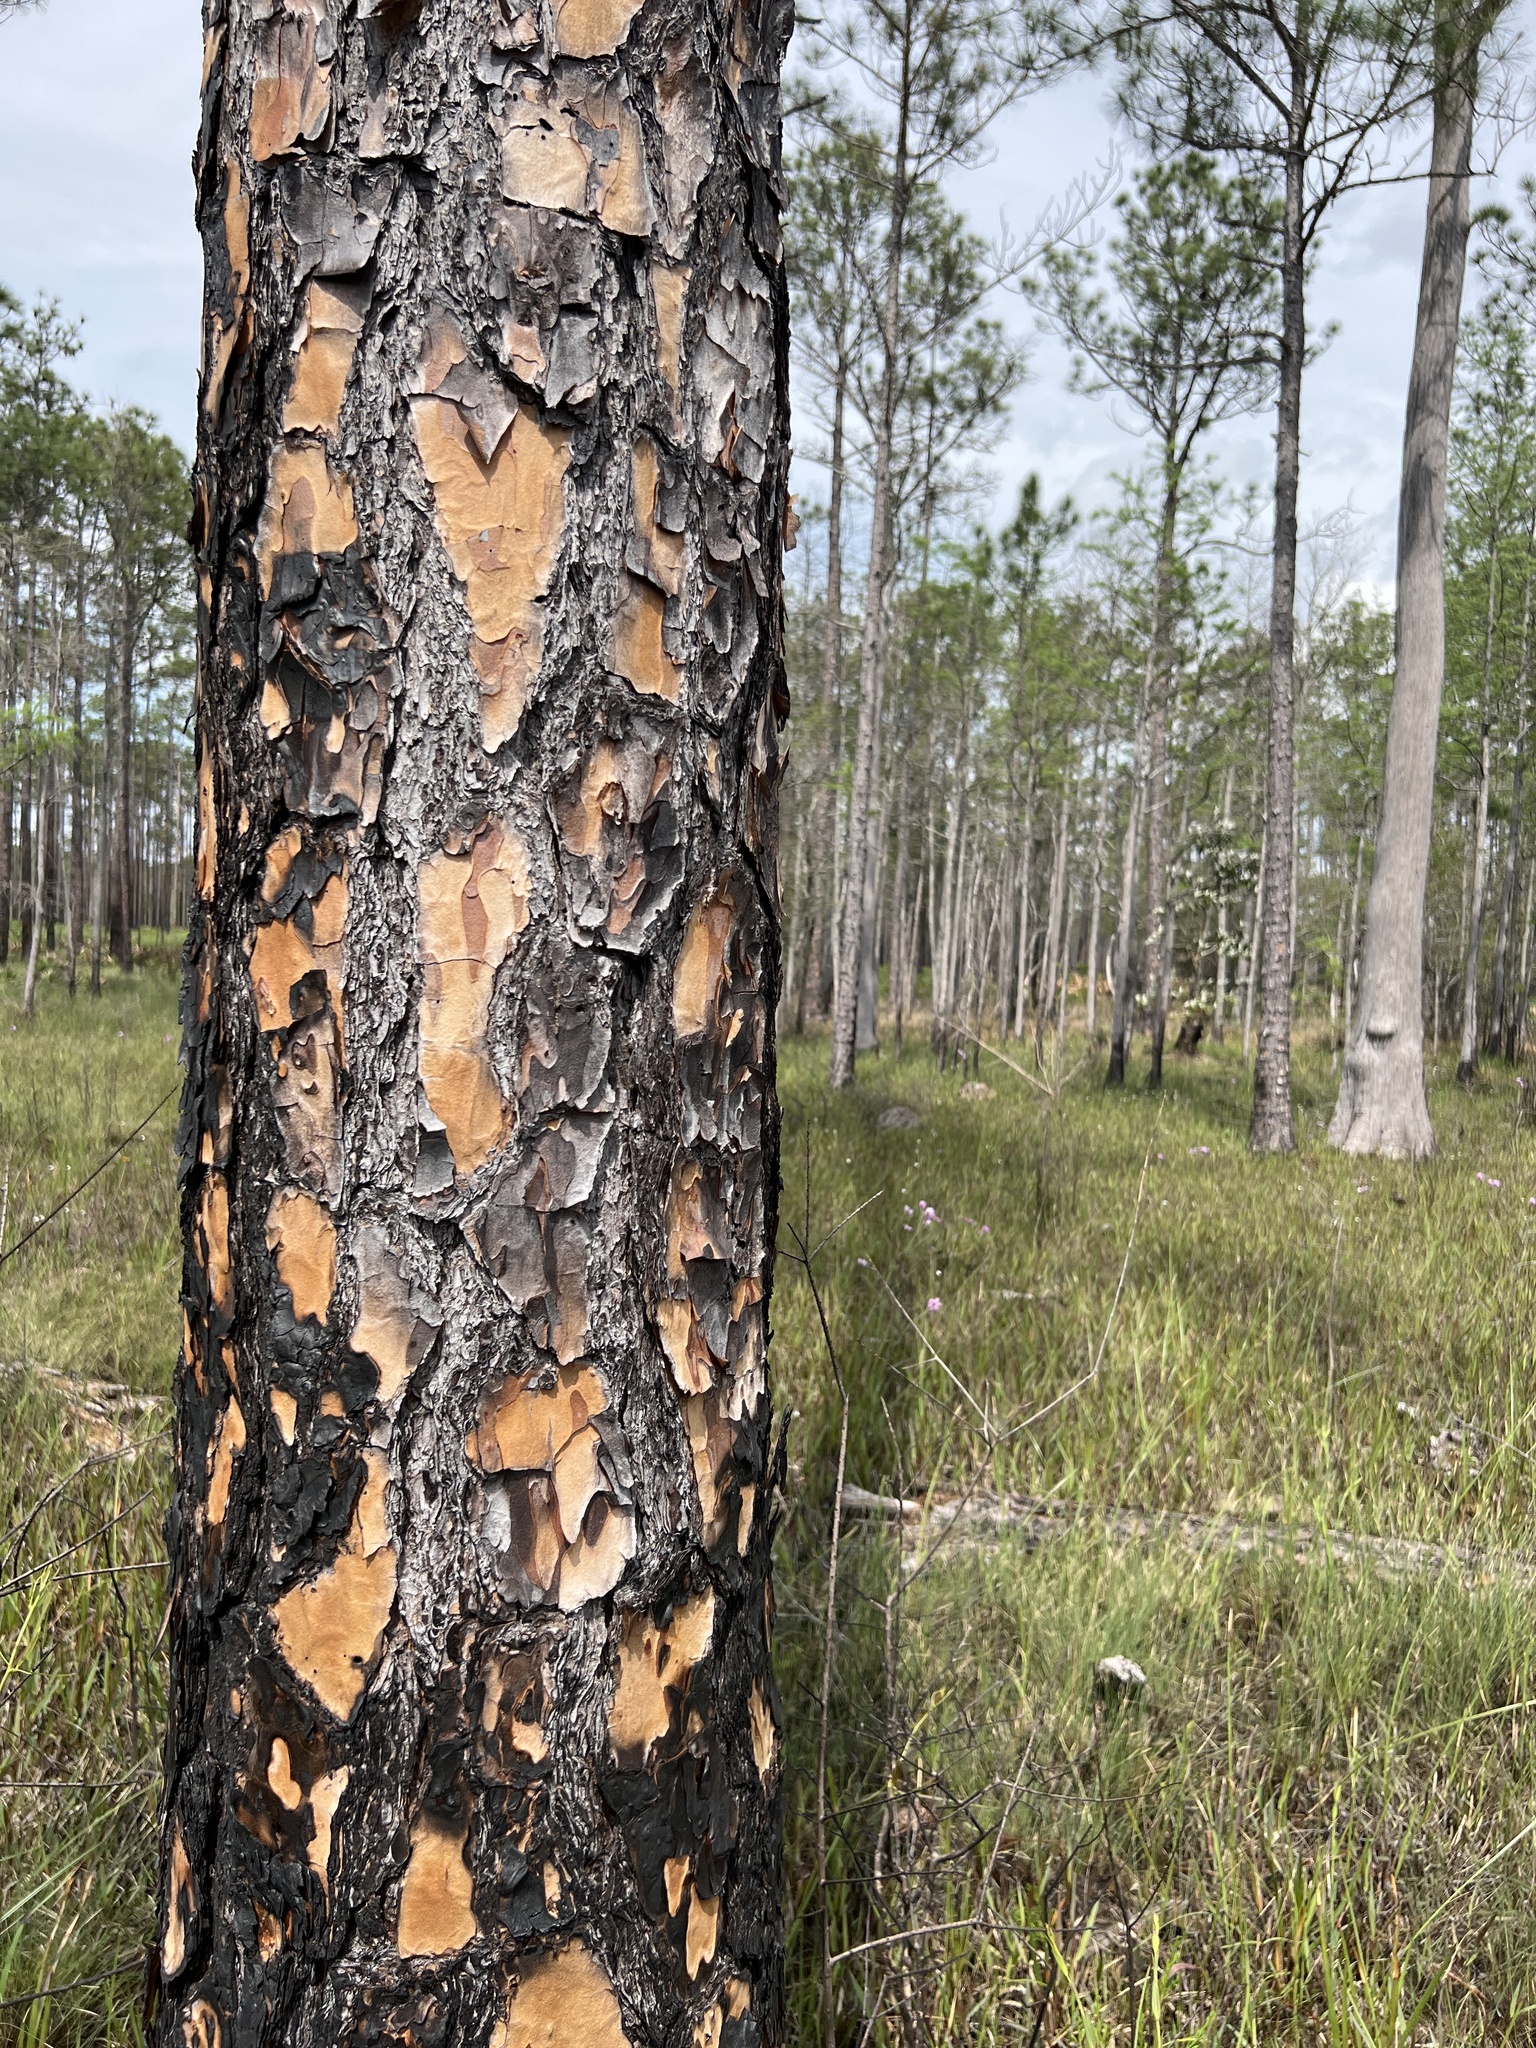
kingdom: Plantae
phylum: Tracheophyta
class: Pinopsida
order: Pinales
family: Pinaceae
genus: Pinus
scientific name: Pinus elliottii
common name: Slash pine
